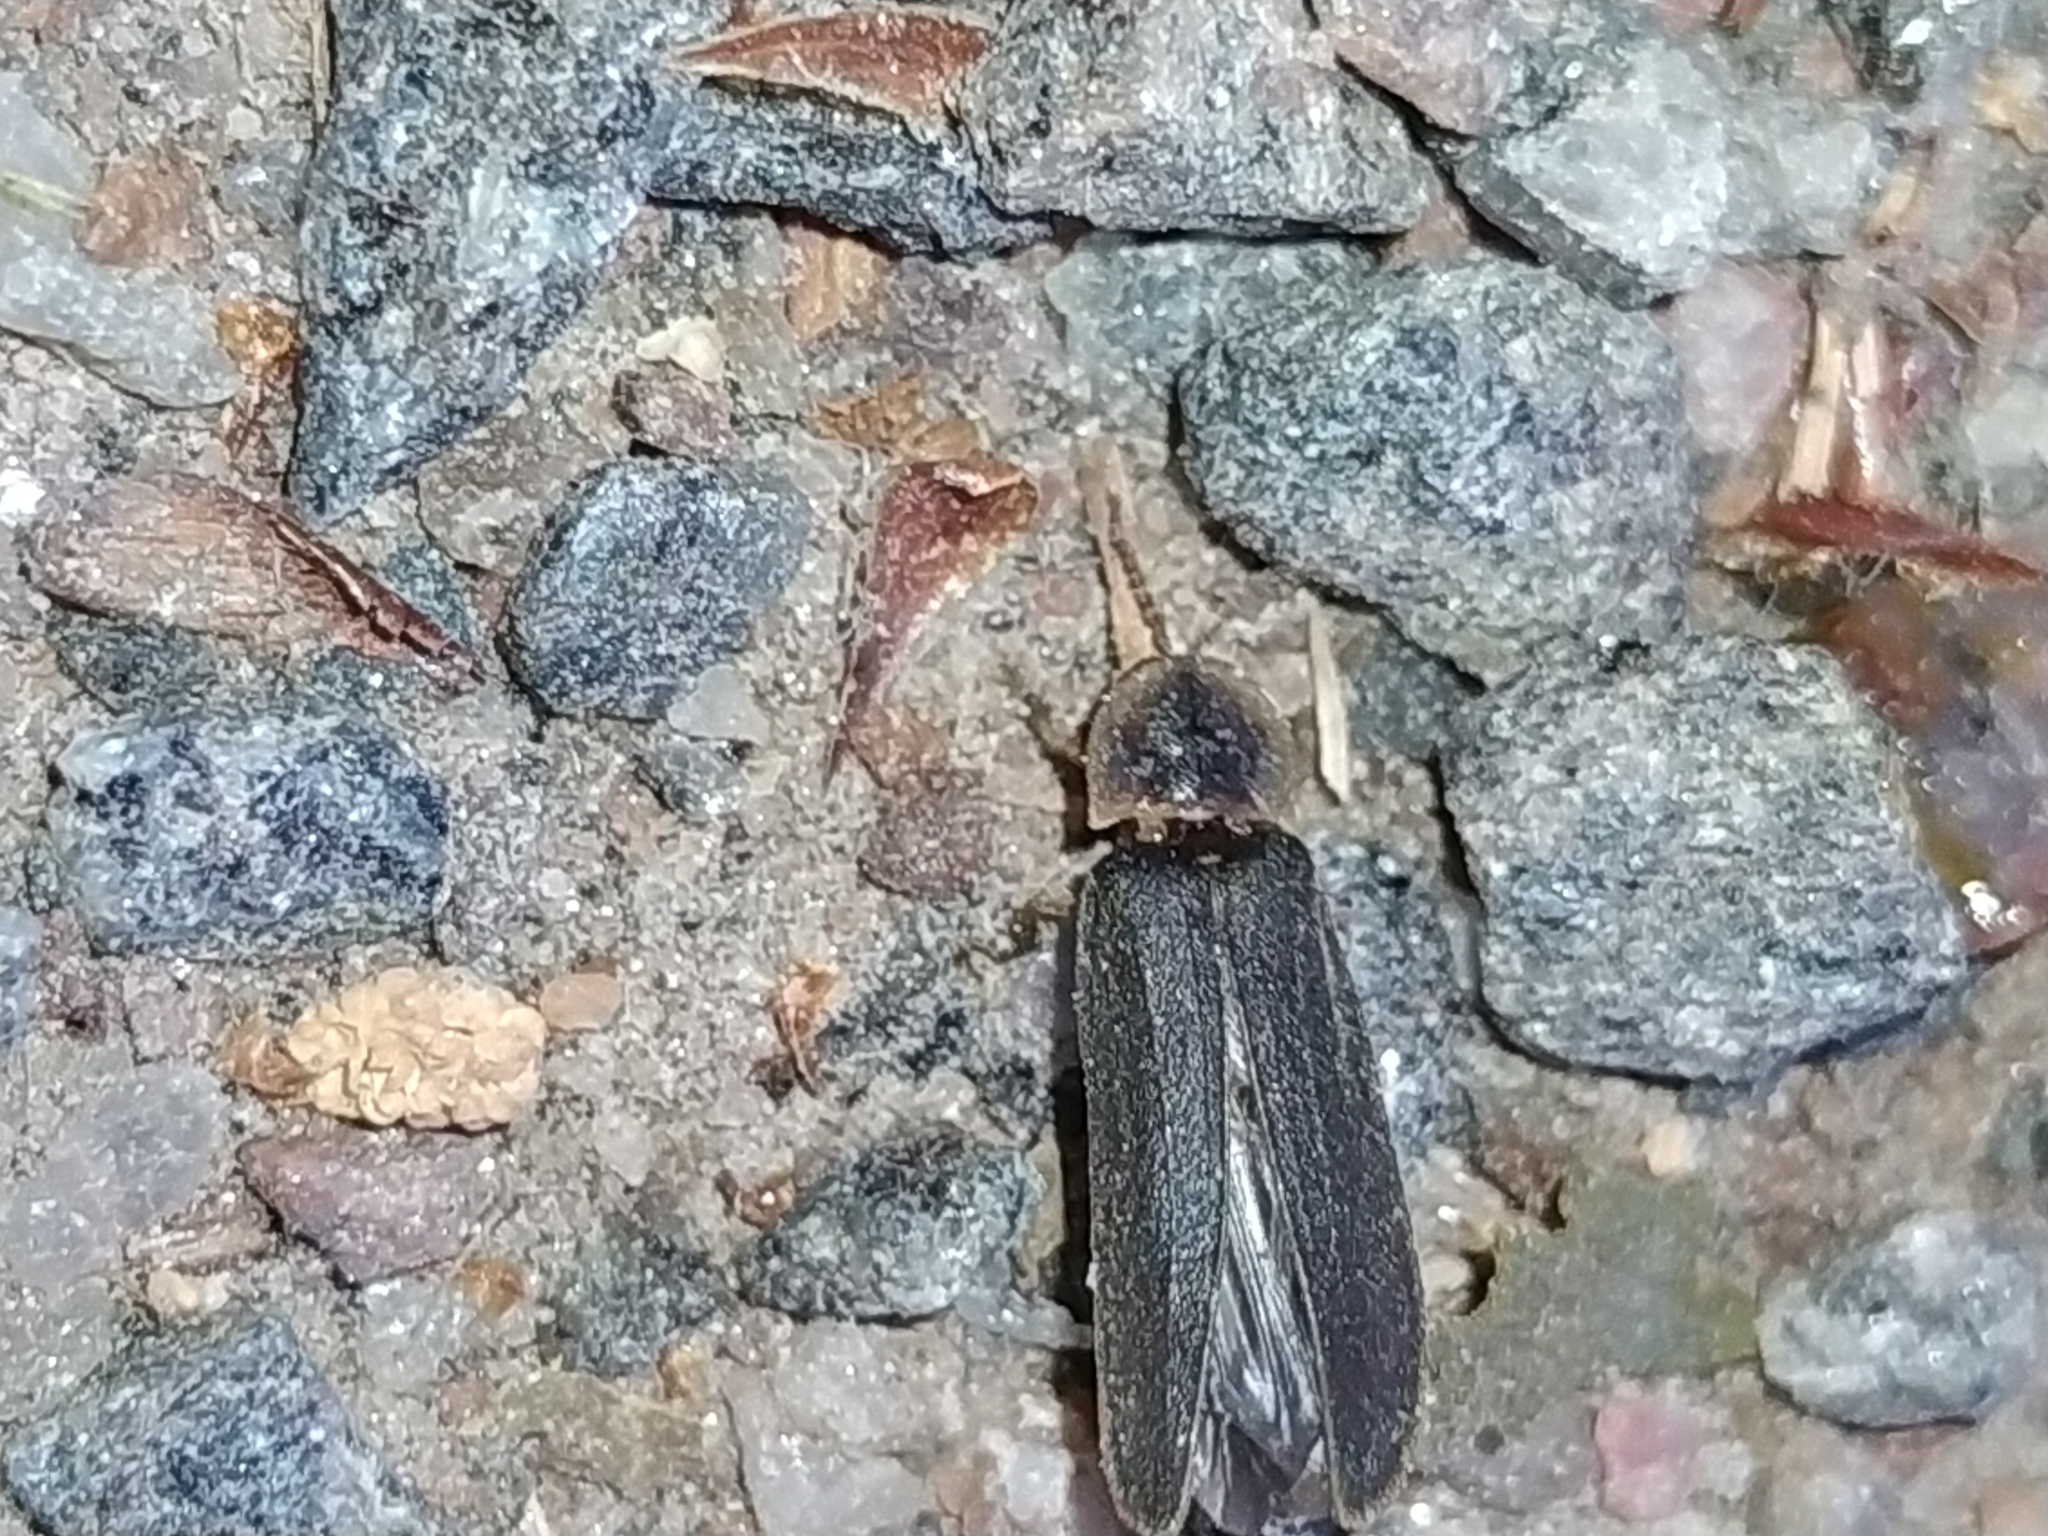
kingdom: Animalia
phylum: Arthropoda
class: Insecta
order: Coleoptera
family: Lampyridae
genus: Lampyris
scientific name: Lampyris noctiluca
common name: Glow-worm
